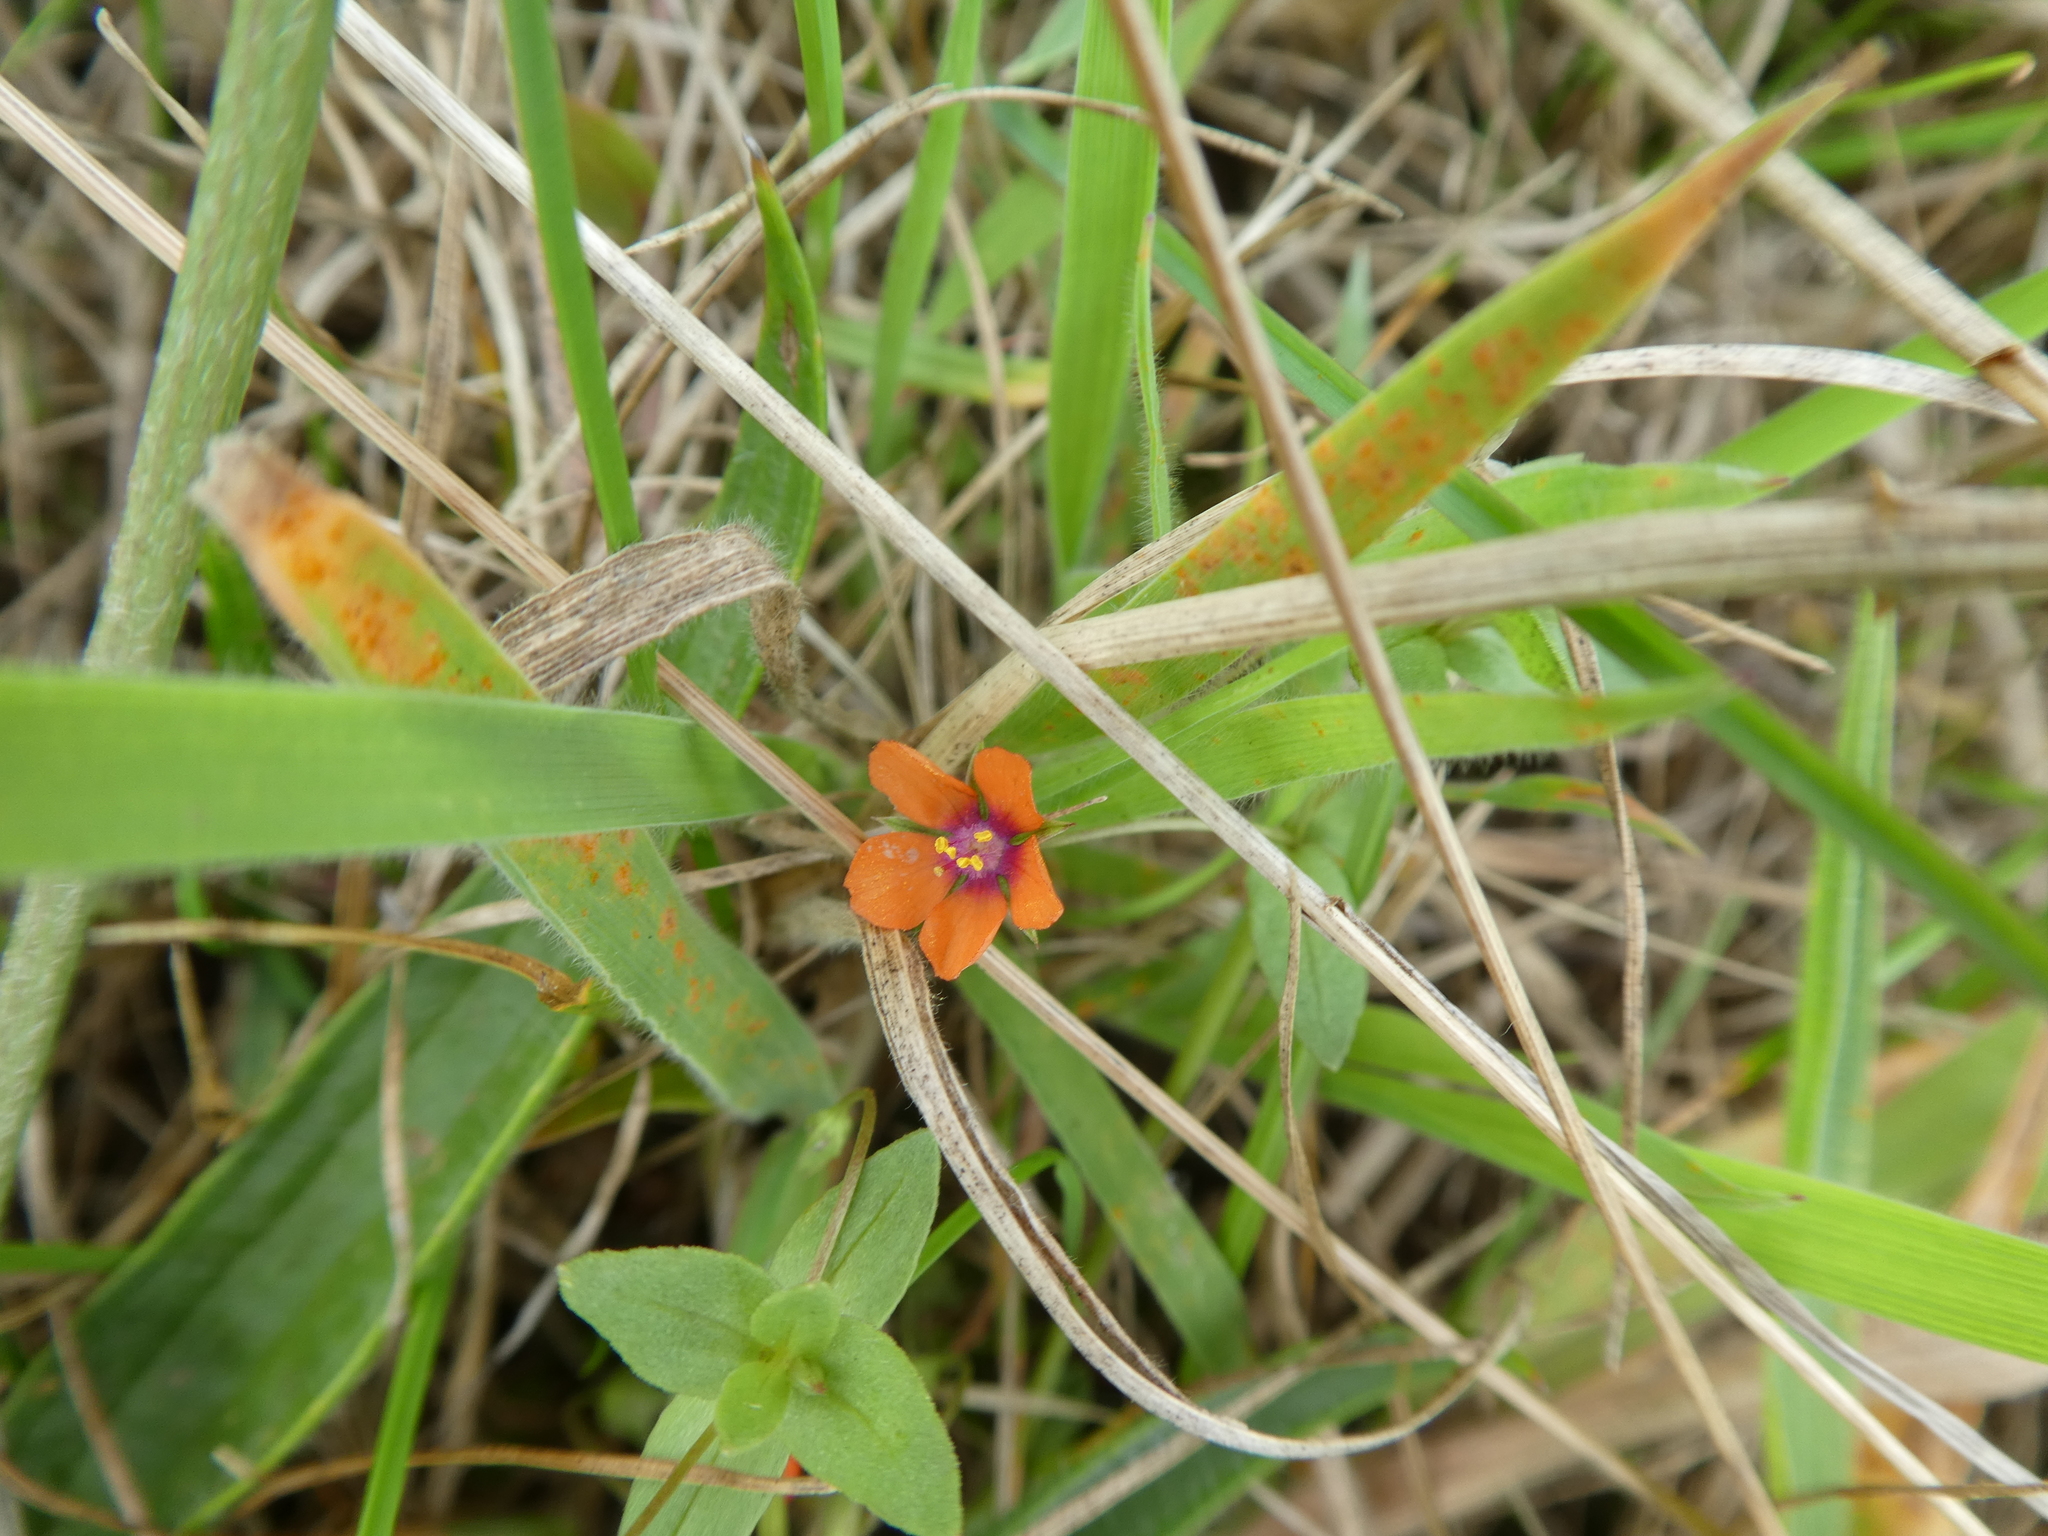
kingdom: Plantae
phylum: Tracheophyta
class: Magnoliopsida
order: Ericales
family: Primulaceae
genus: Lysimachia
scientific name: Lysimachia arvensis
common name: Scarlet pimpernel
